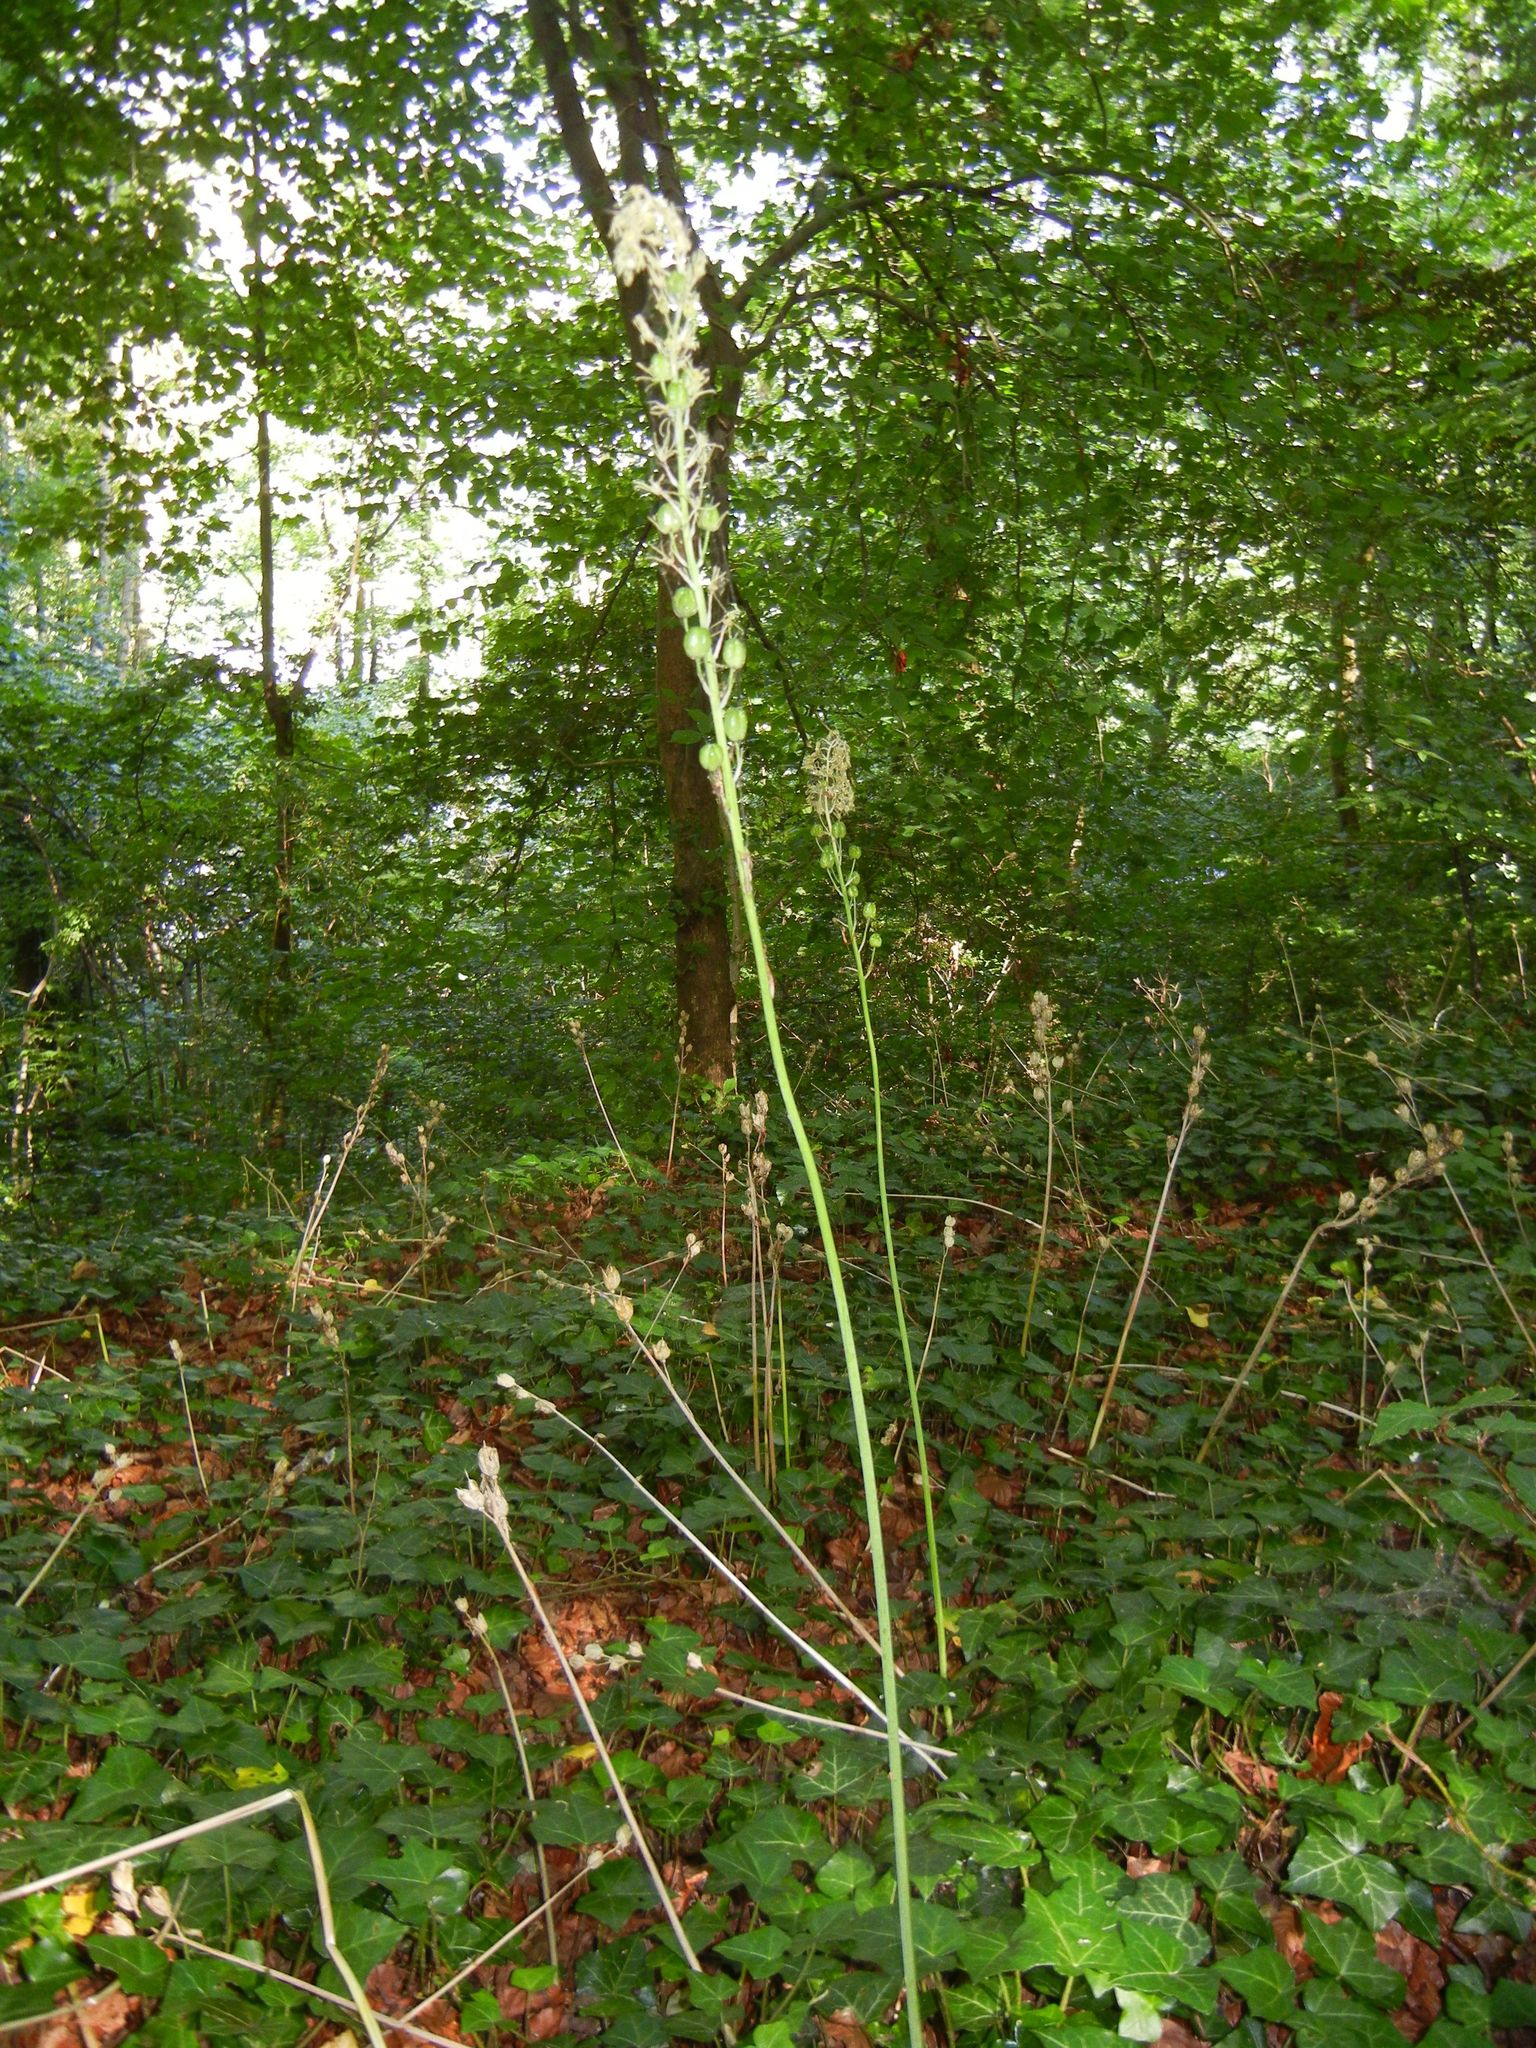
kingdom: Plantae
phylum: Tracheophyta
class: Liliopsida
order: Asparagales
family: Asparagaceae
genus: Ornithogalum
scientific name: Ornithogalum pyrenaicum
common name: Spiked star-of-bethlehem
